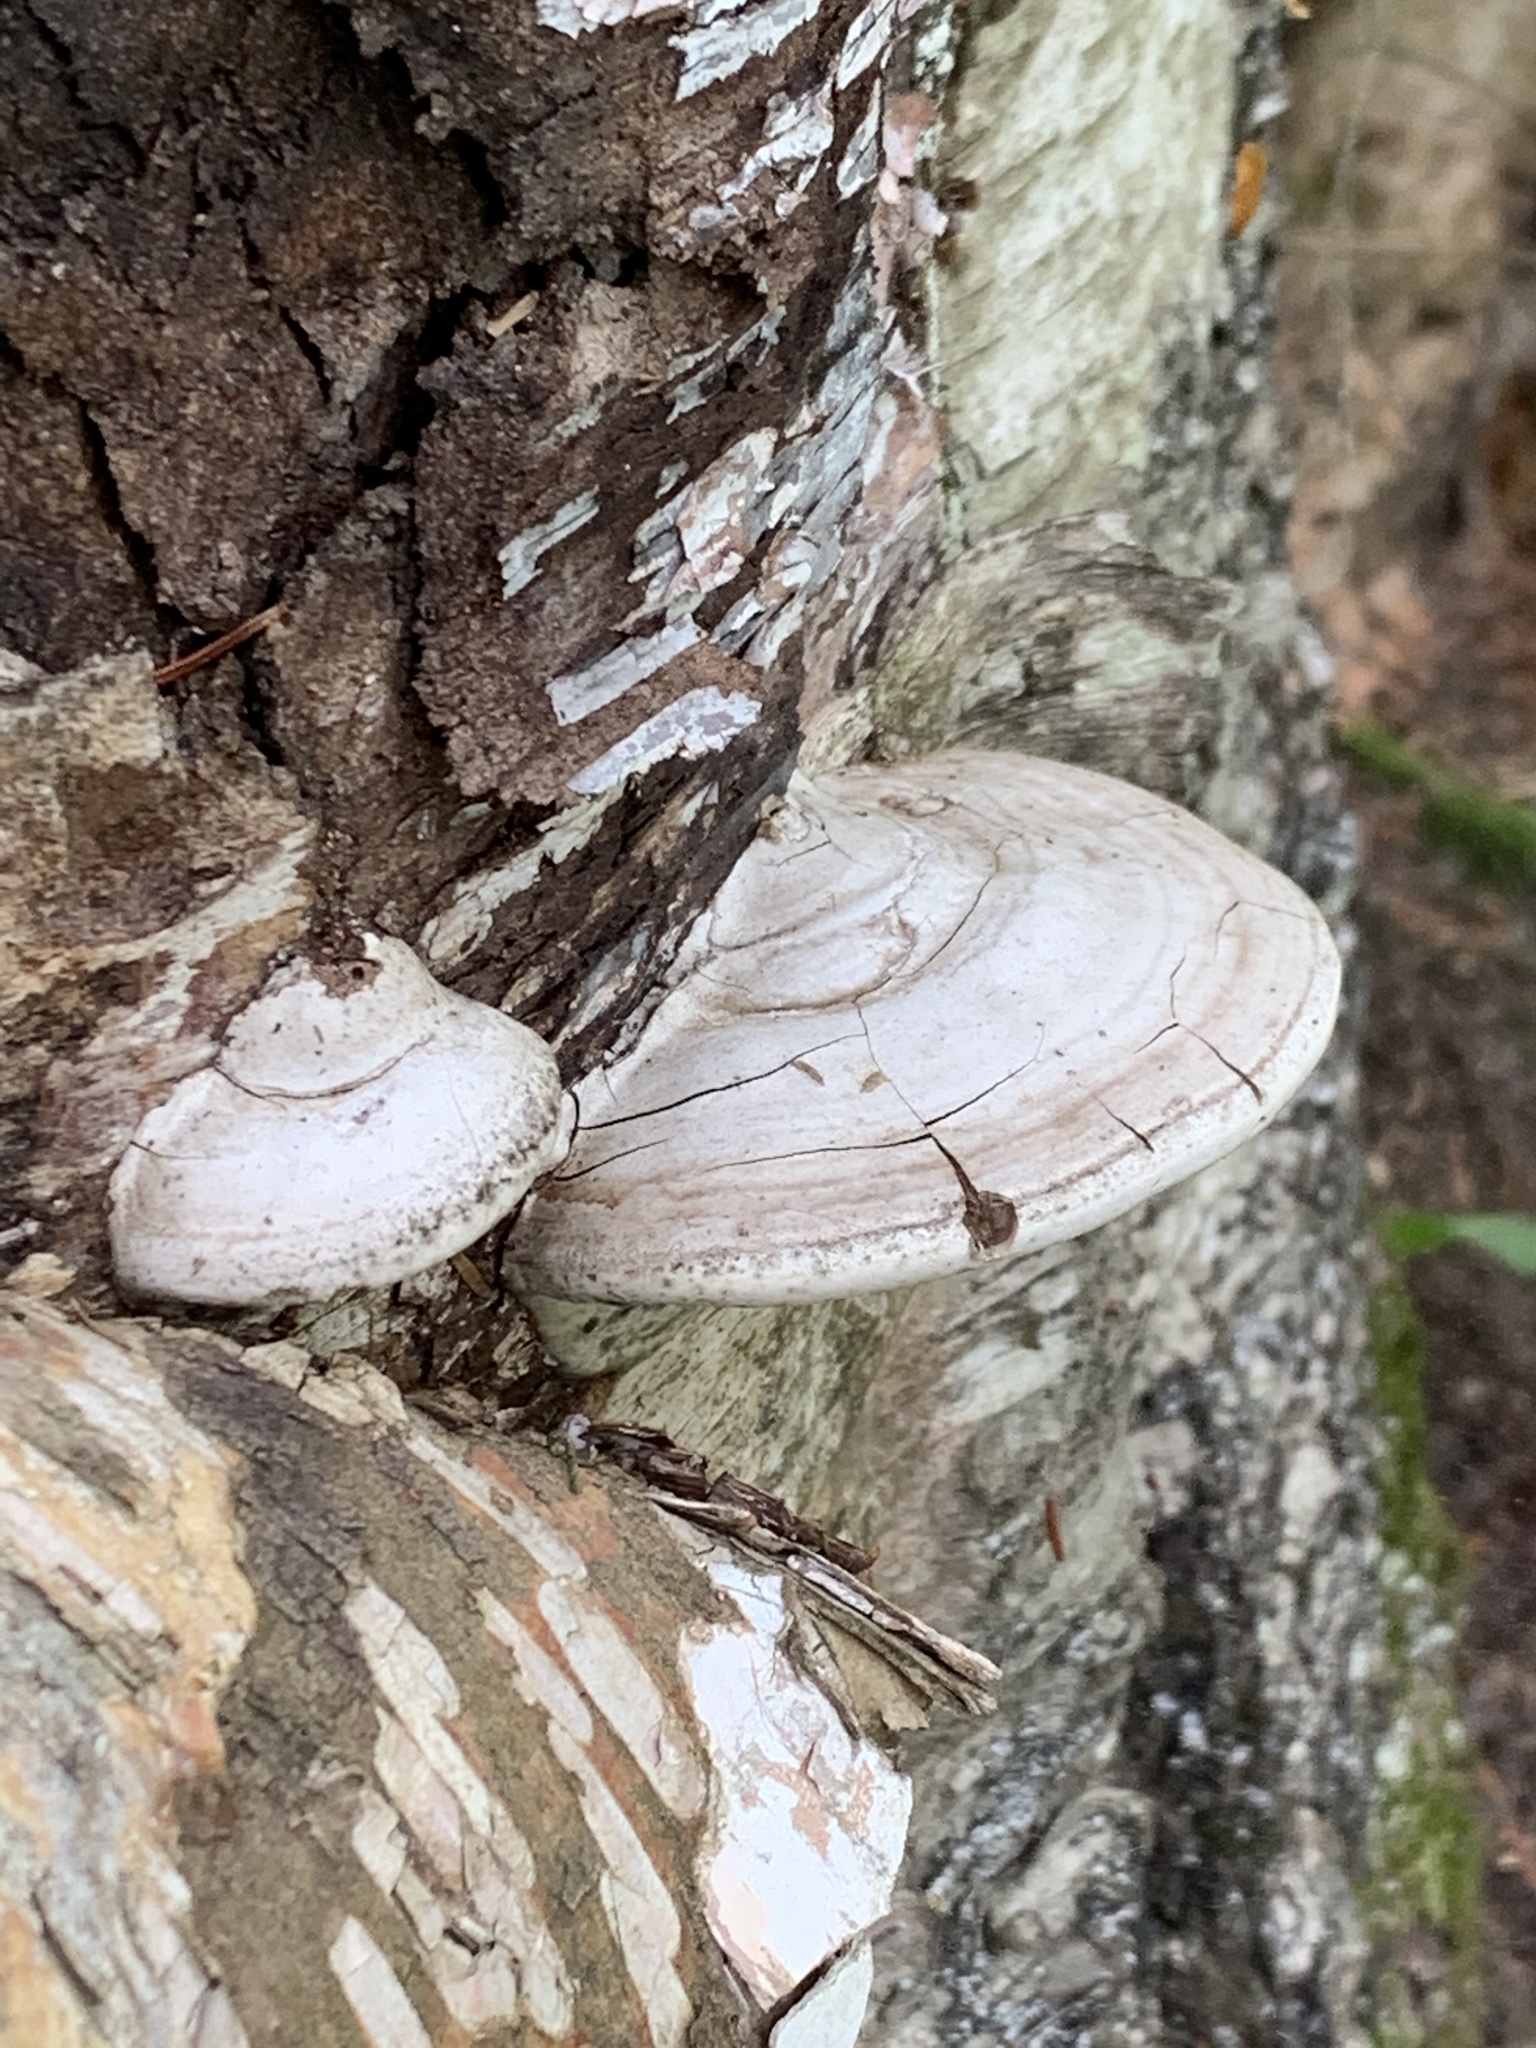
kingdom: Fungi
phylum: Basidiomycota
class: Agaricomycetes
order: Polyporales
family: Polyporaceae
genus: Ganoderma
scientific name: Ganoderma applanatum
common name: Artist's bracket
